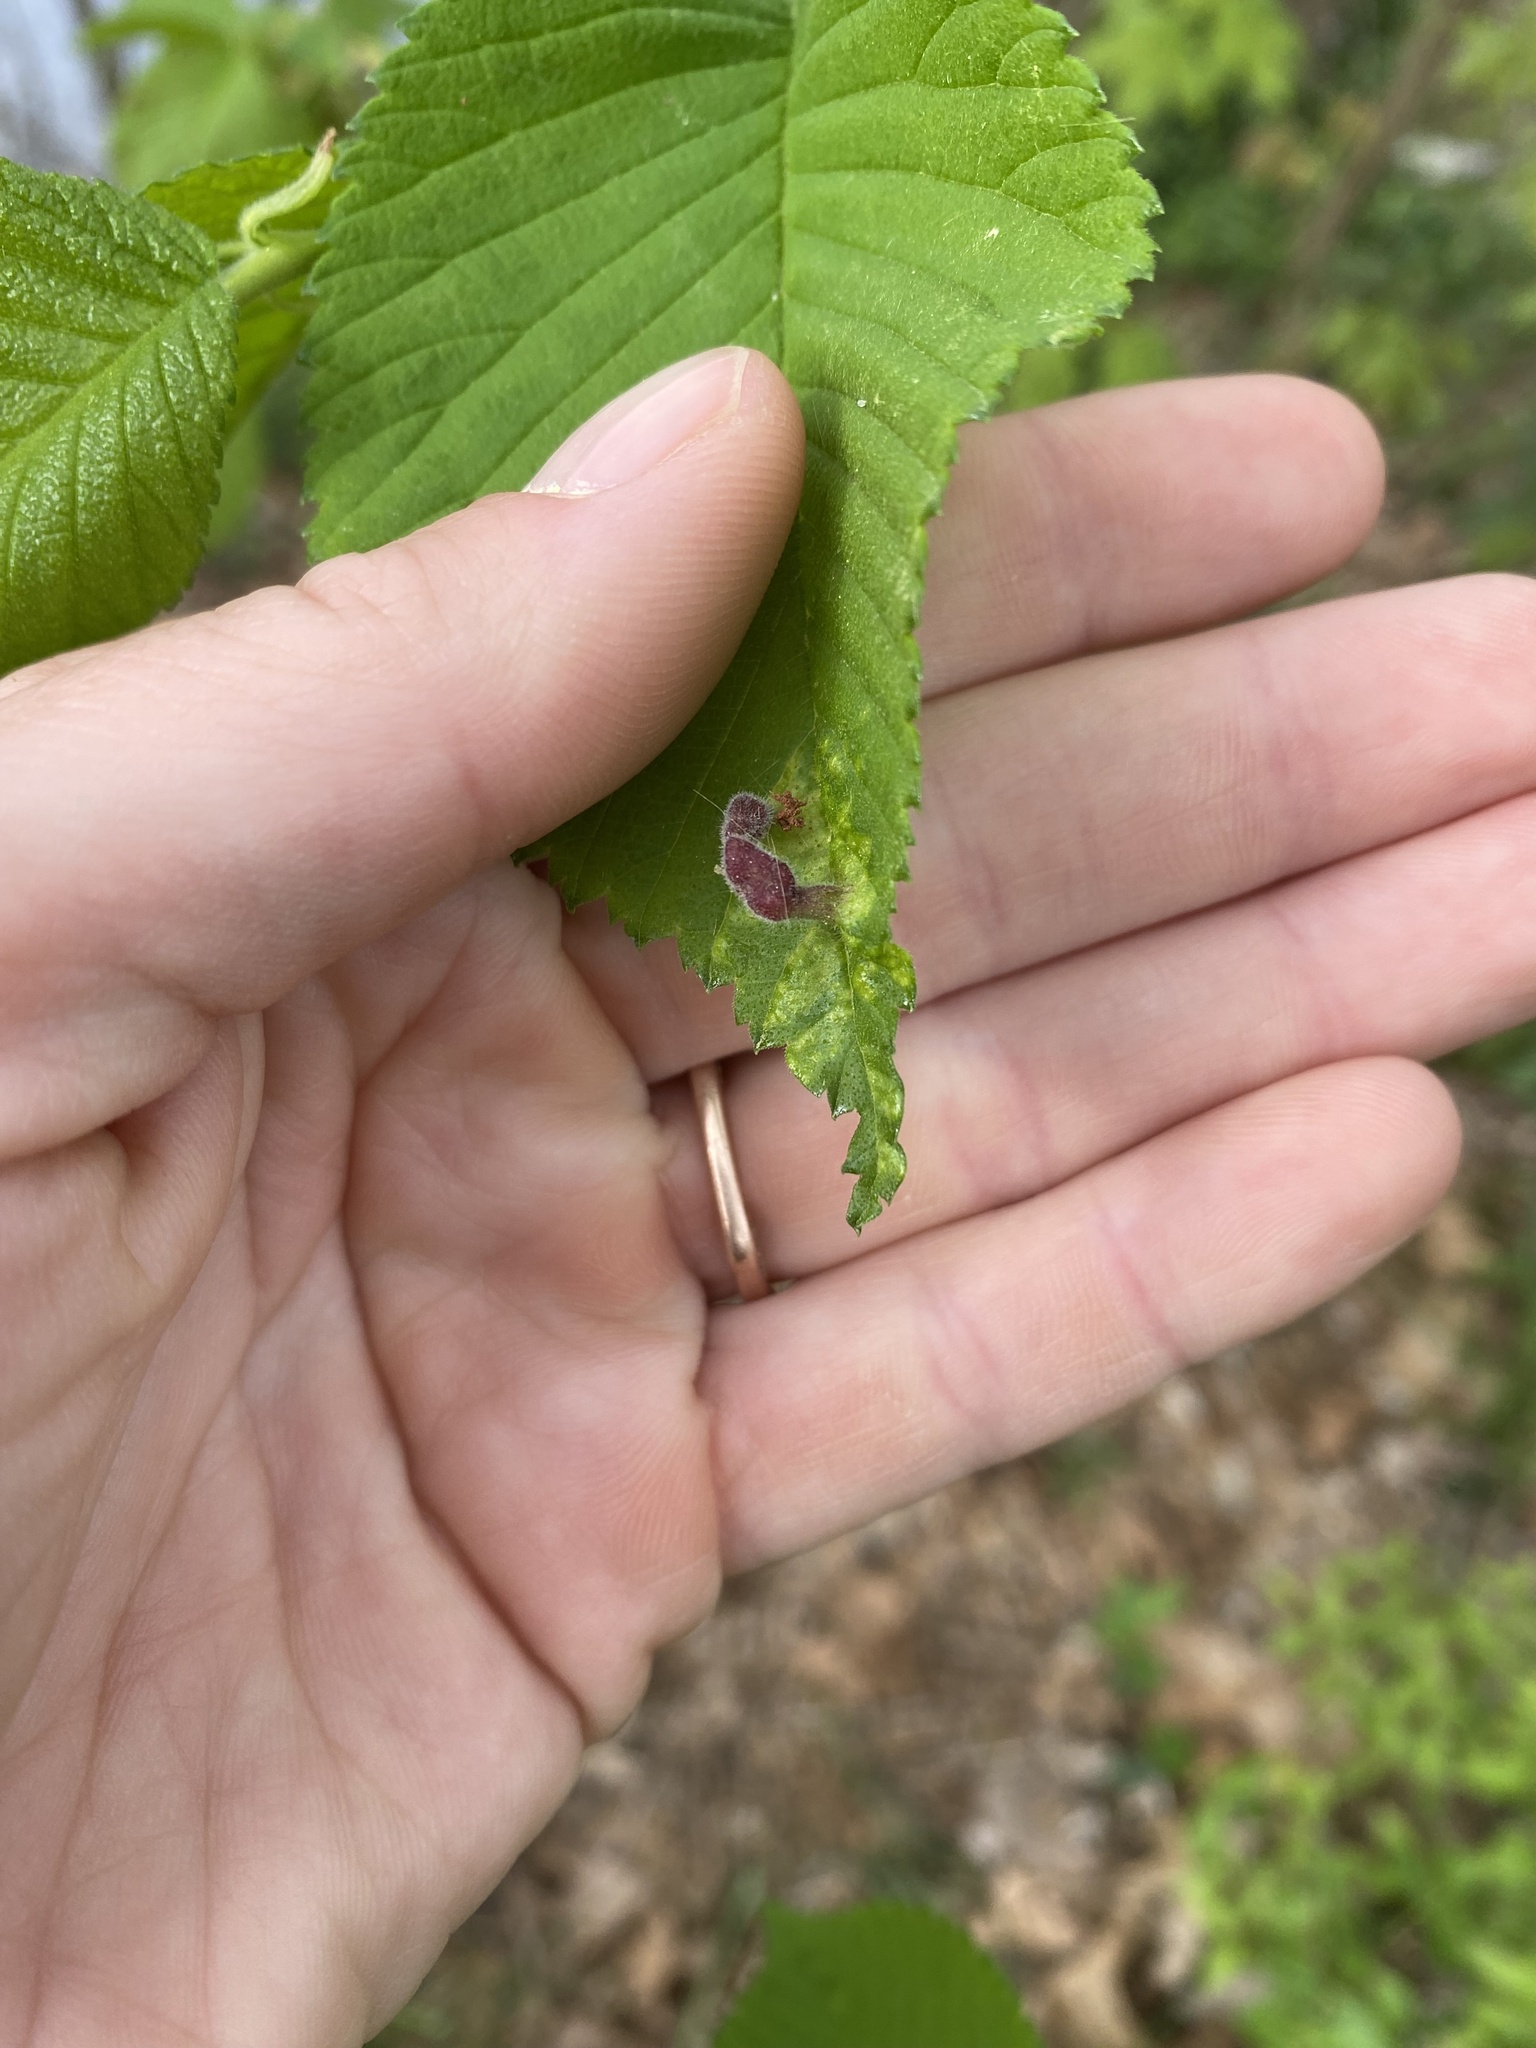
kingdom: Animalia
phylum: Arthropoda
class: Insecta
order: Hemiptera
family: Aphididae
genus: Tetraneura
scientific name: Tetraneura nigriabdominalis
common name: Aphid
